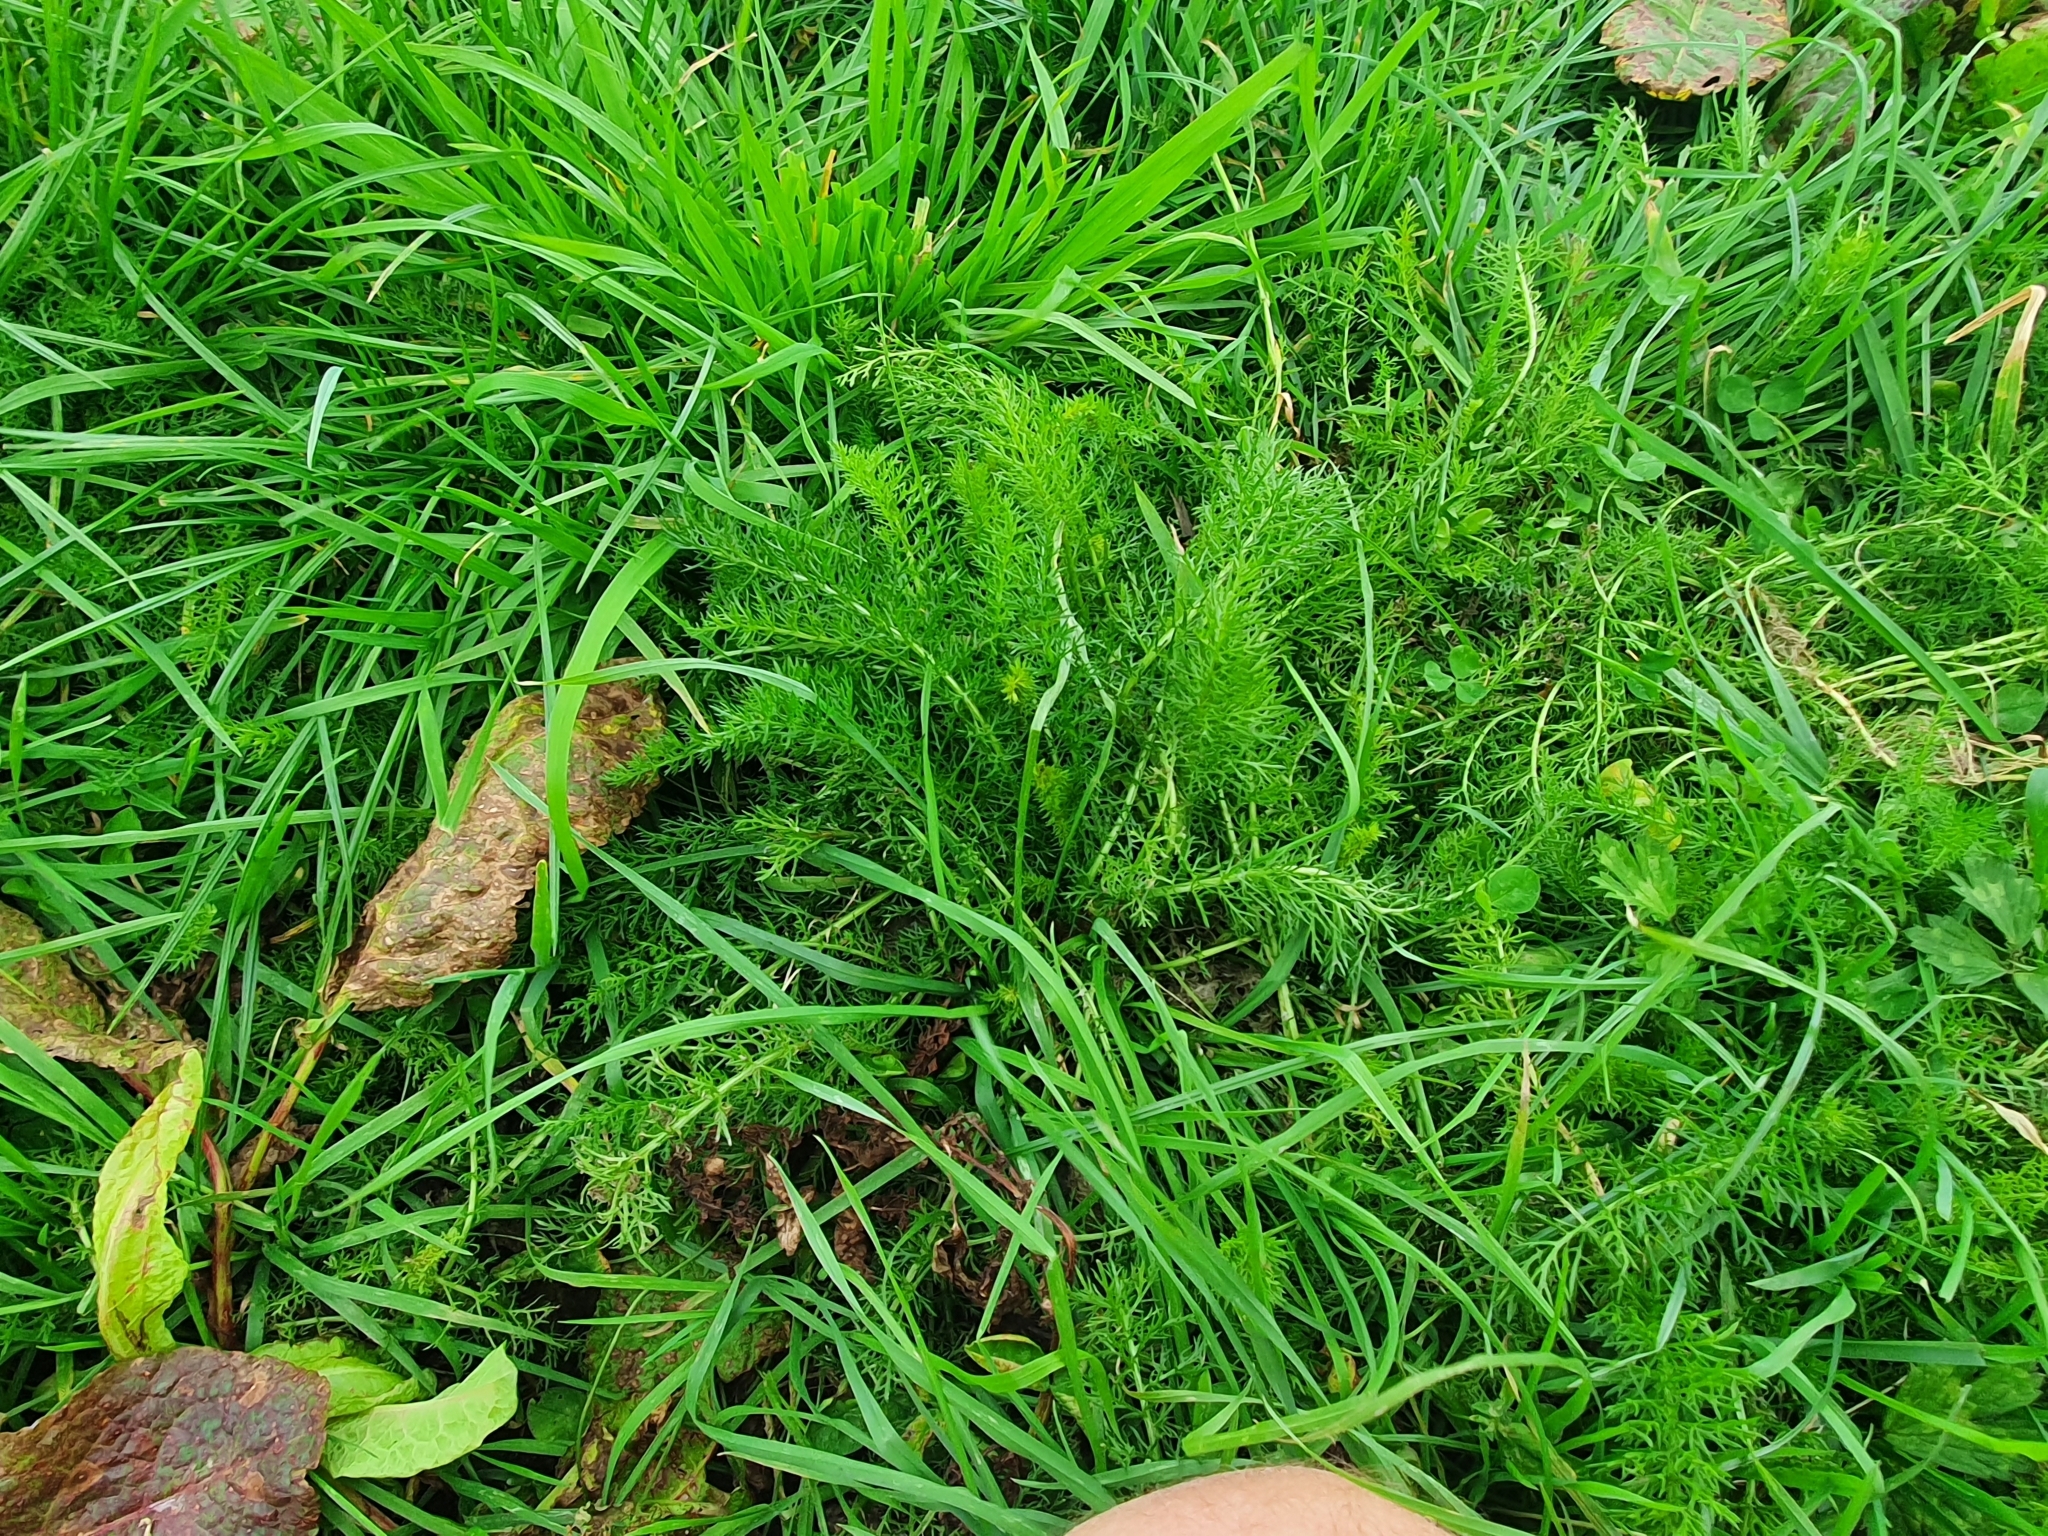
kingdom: Plantae
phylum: Tracheophyta
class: Magnoliopsida
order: Asterales
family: Asteraceae
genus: Achillea
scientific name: Achillea millefolium
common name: Yarrow
